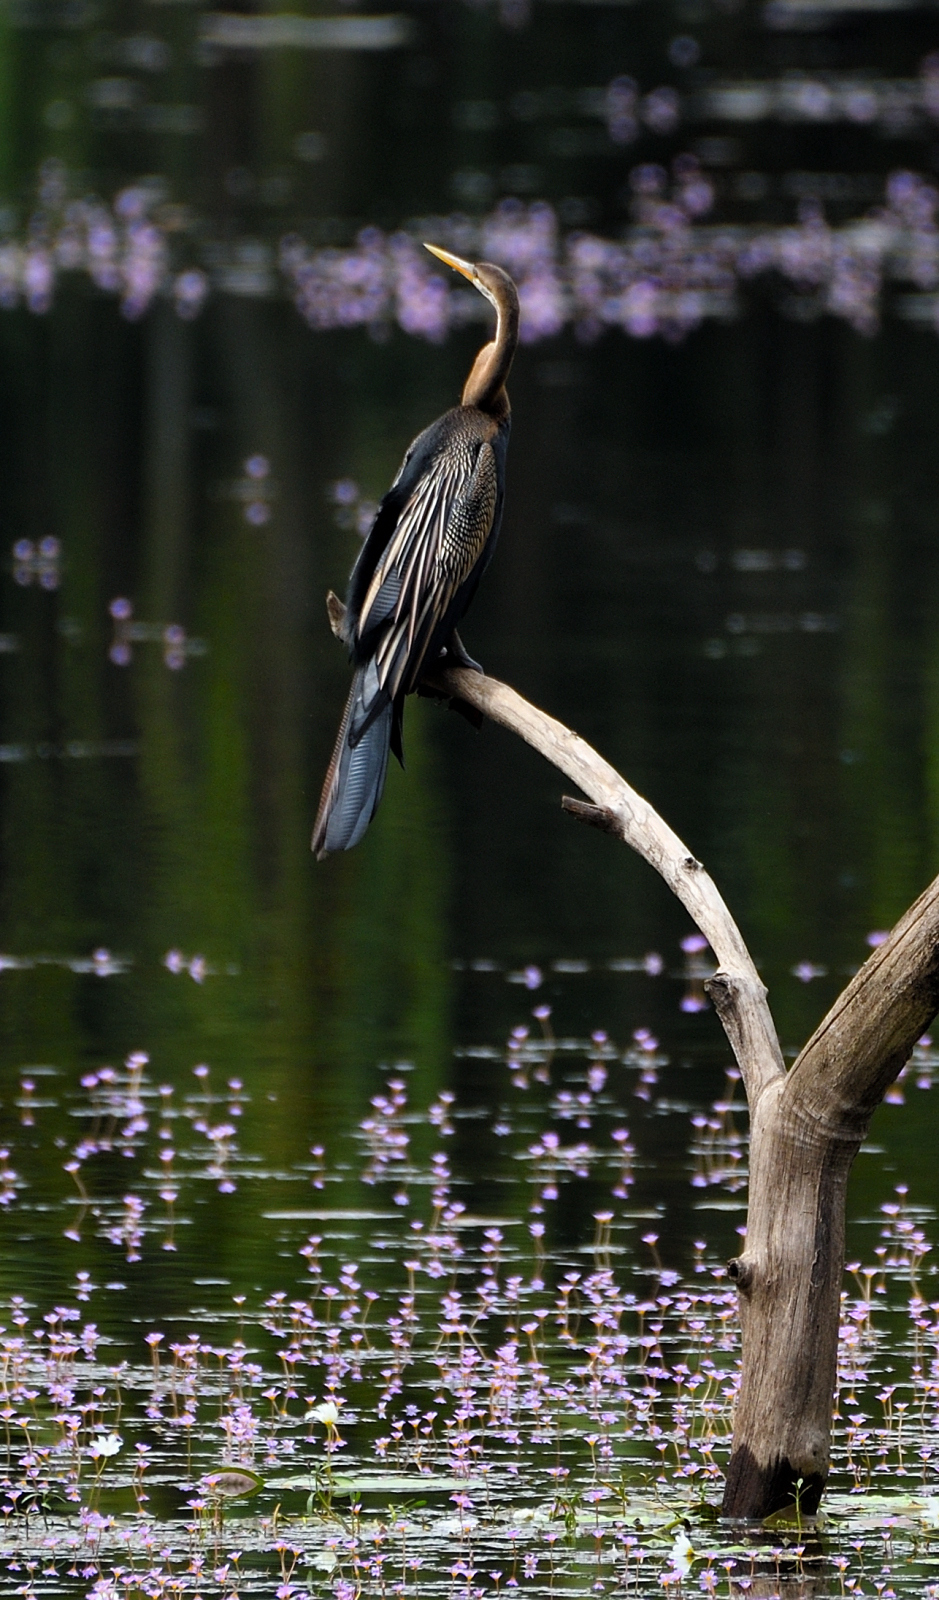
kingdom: Animalia
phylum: Chordata
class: Aves
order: Suliformes
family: Anhingidae
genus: Anhinga
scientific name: Anhinga melanogaster
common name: Oriental darter
